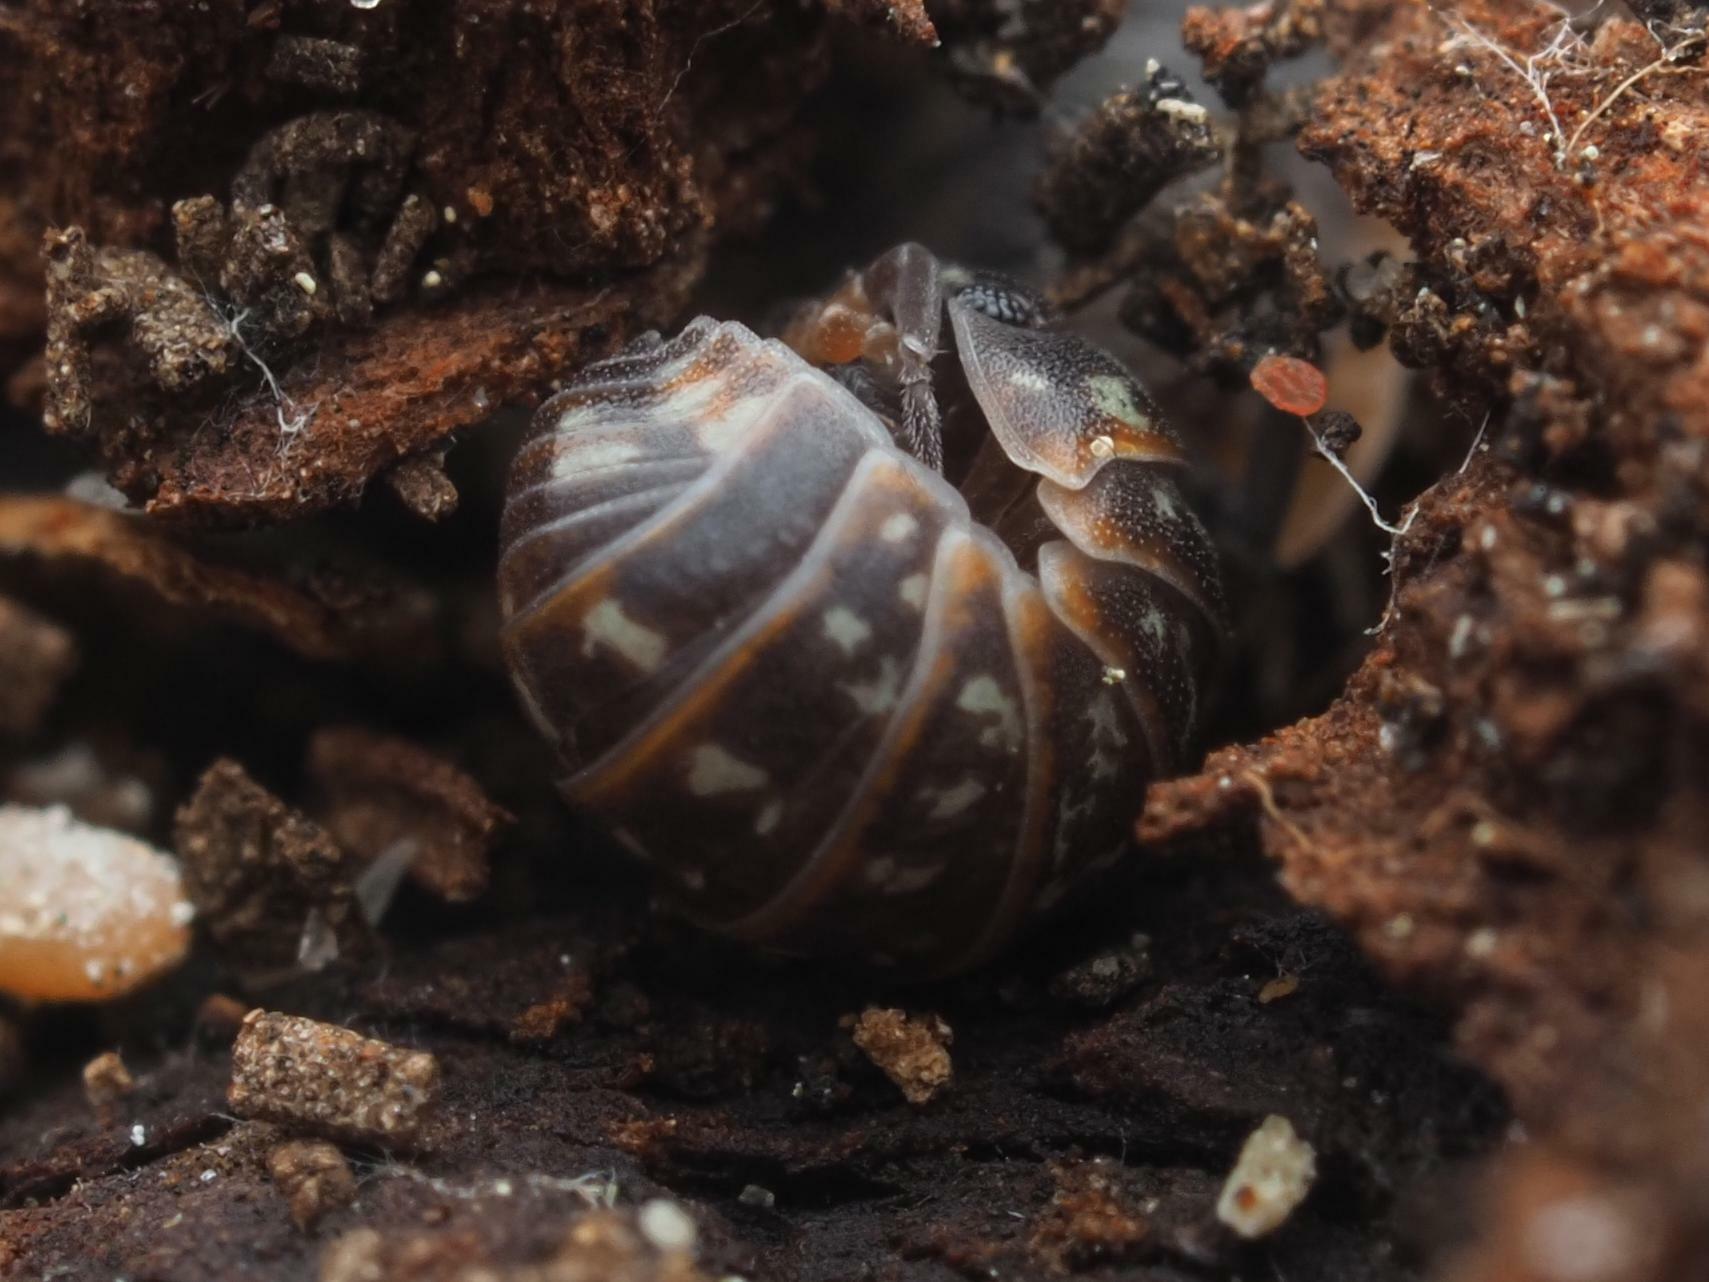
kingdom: Animalia
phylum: Arthropoda
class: Malacostraca
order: Isopoda
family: Armadillidiidae
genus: Armadillidium
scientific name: Armadillidium pulchellum
